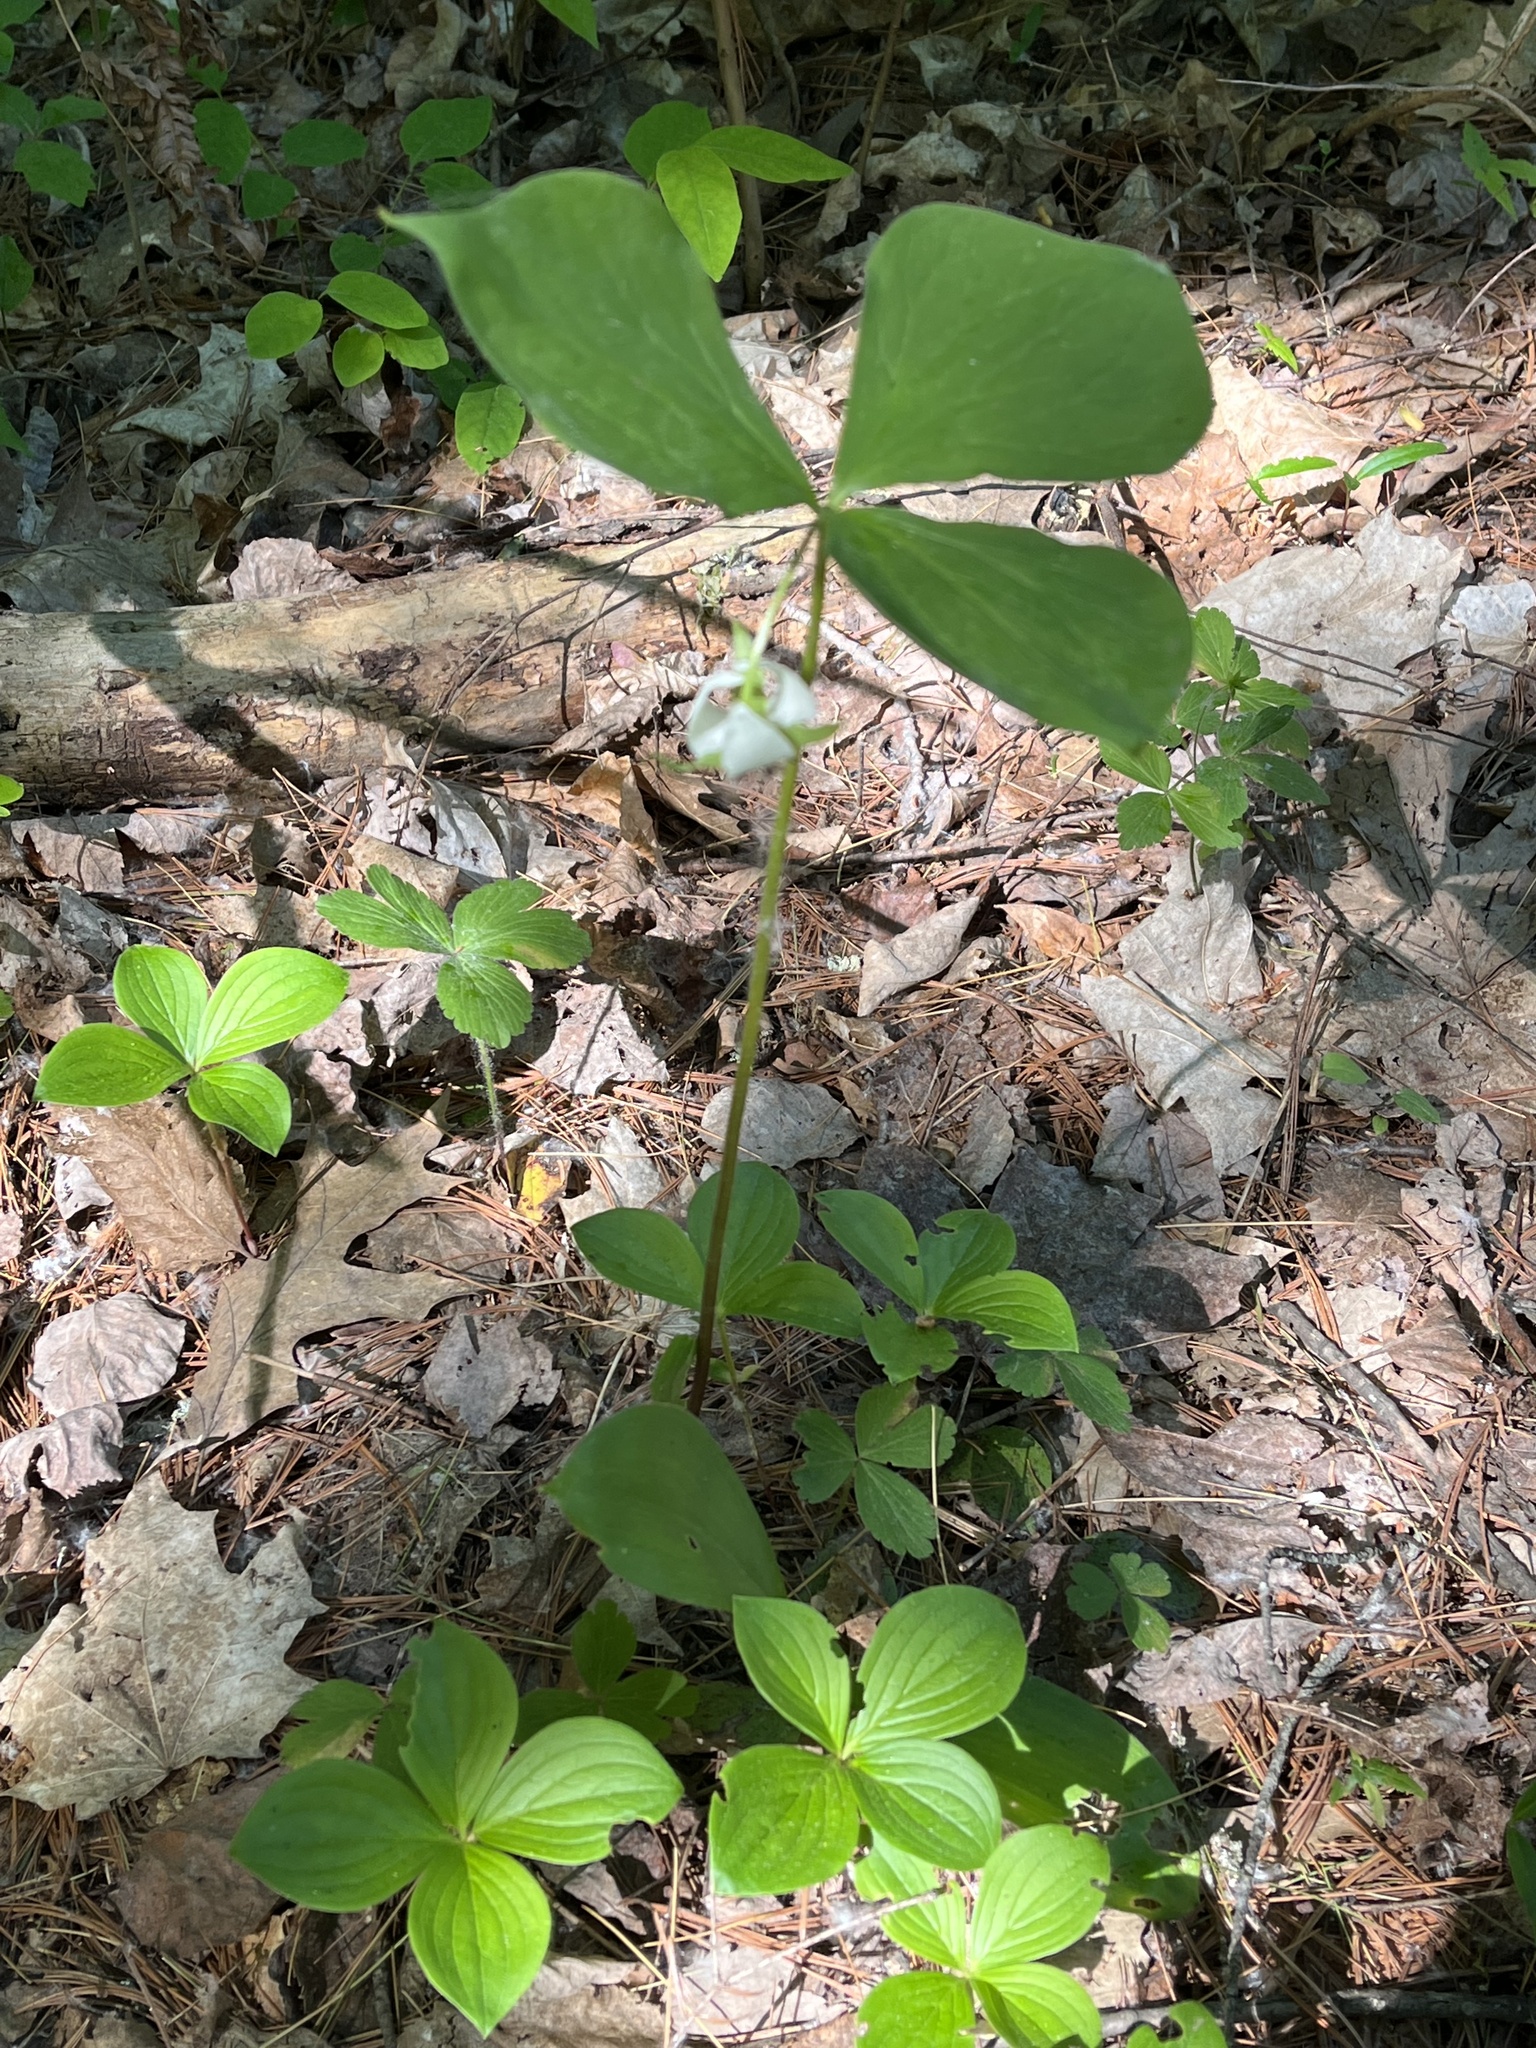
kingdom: Plantae
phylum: Tracheophyta
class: Liliopsida
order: Liliales
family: Melanthiaceae
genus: Trillium
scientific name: Trillium cernuum
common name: Nodding trillium
